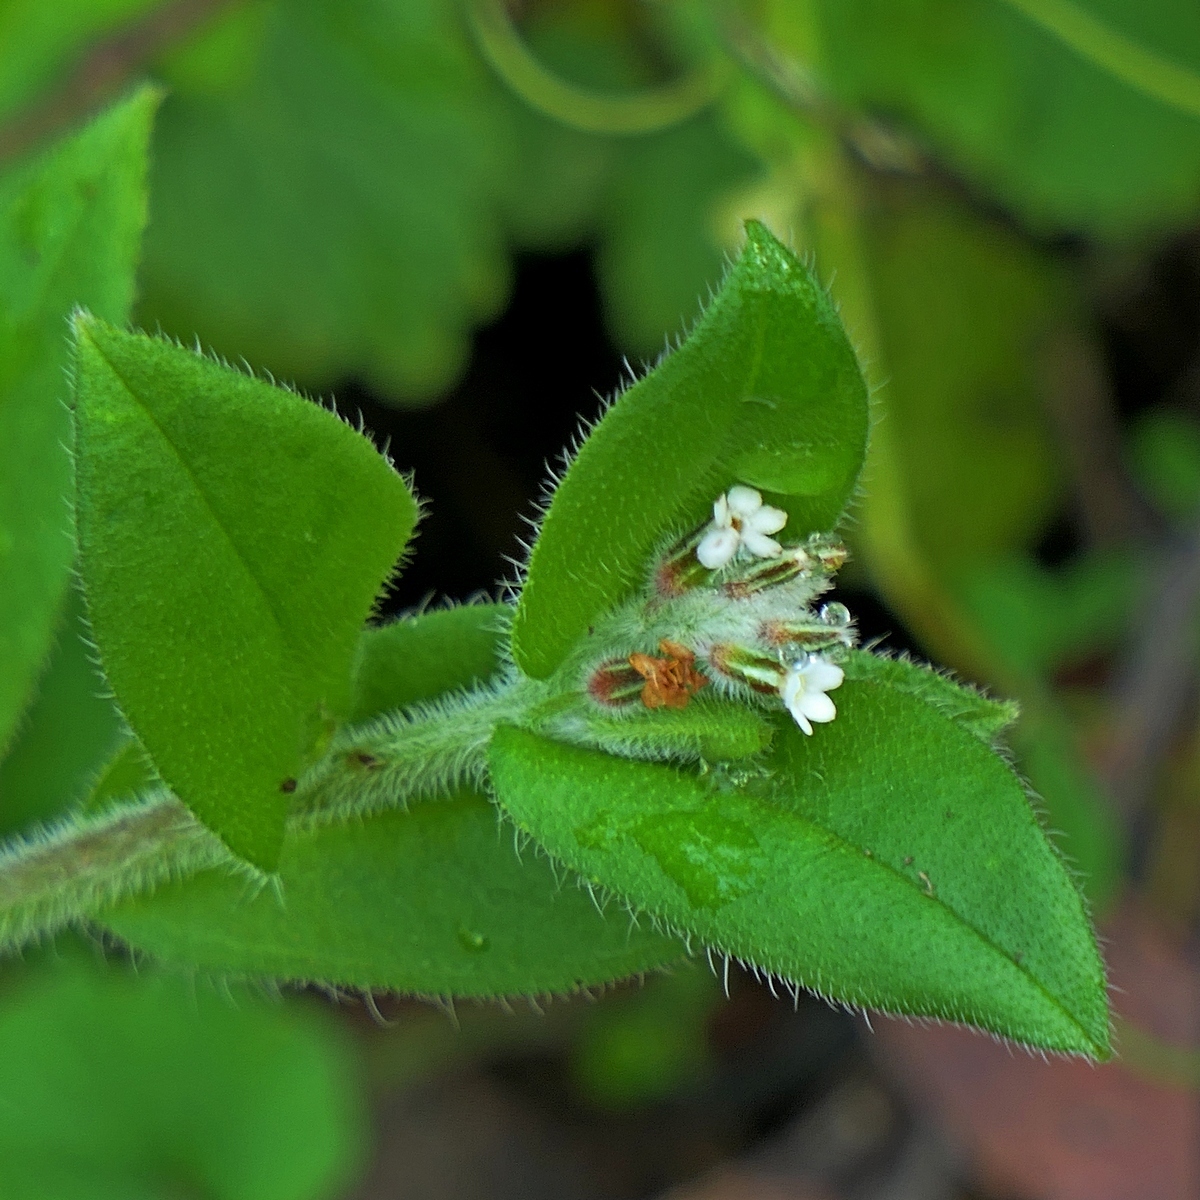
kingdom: Plantae
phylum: Tracheophyta
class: Magnoliopsida
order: Boraginales
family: Boraginaceae
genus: Myosotis
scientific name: Myosotis australis
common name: Australian forget-me-not
